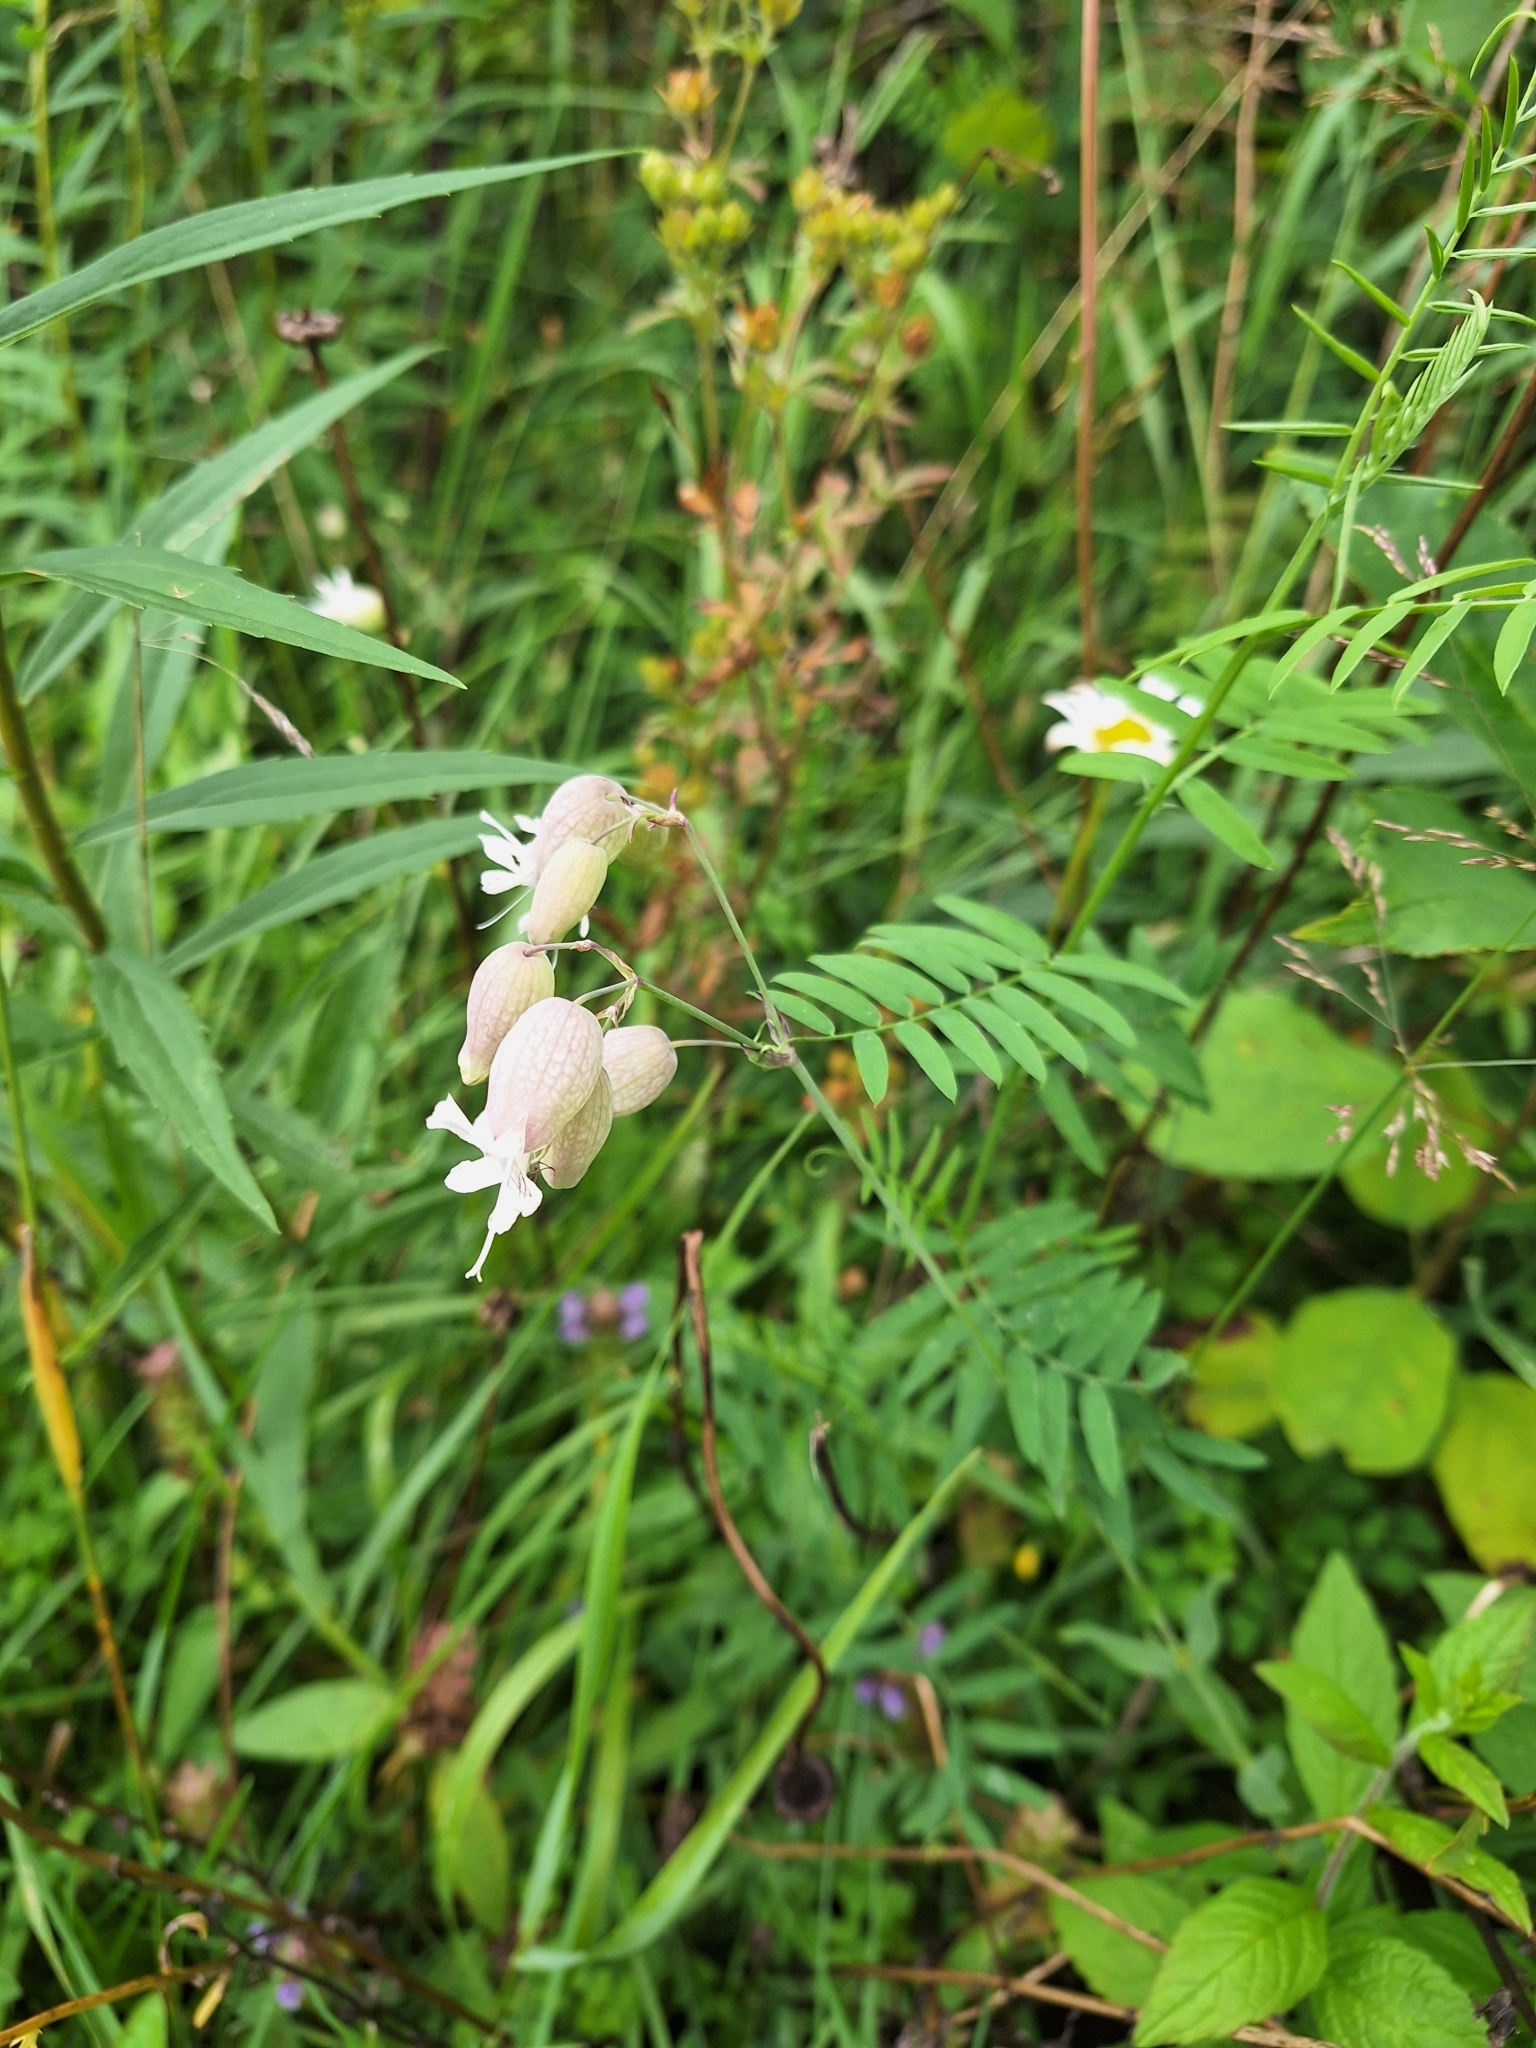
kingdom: Plantae
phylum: Tracheophyta
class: Magnoliopsida
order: Caryophyllales
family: Caryophyllaceae
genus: Silene
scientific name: Silene vulgaris
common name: Bladder campion
